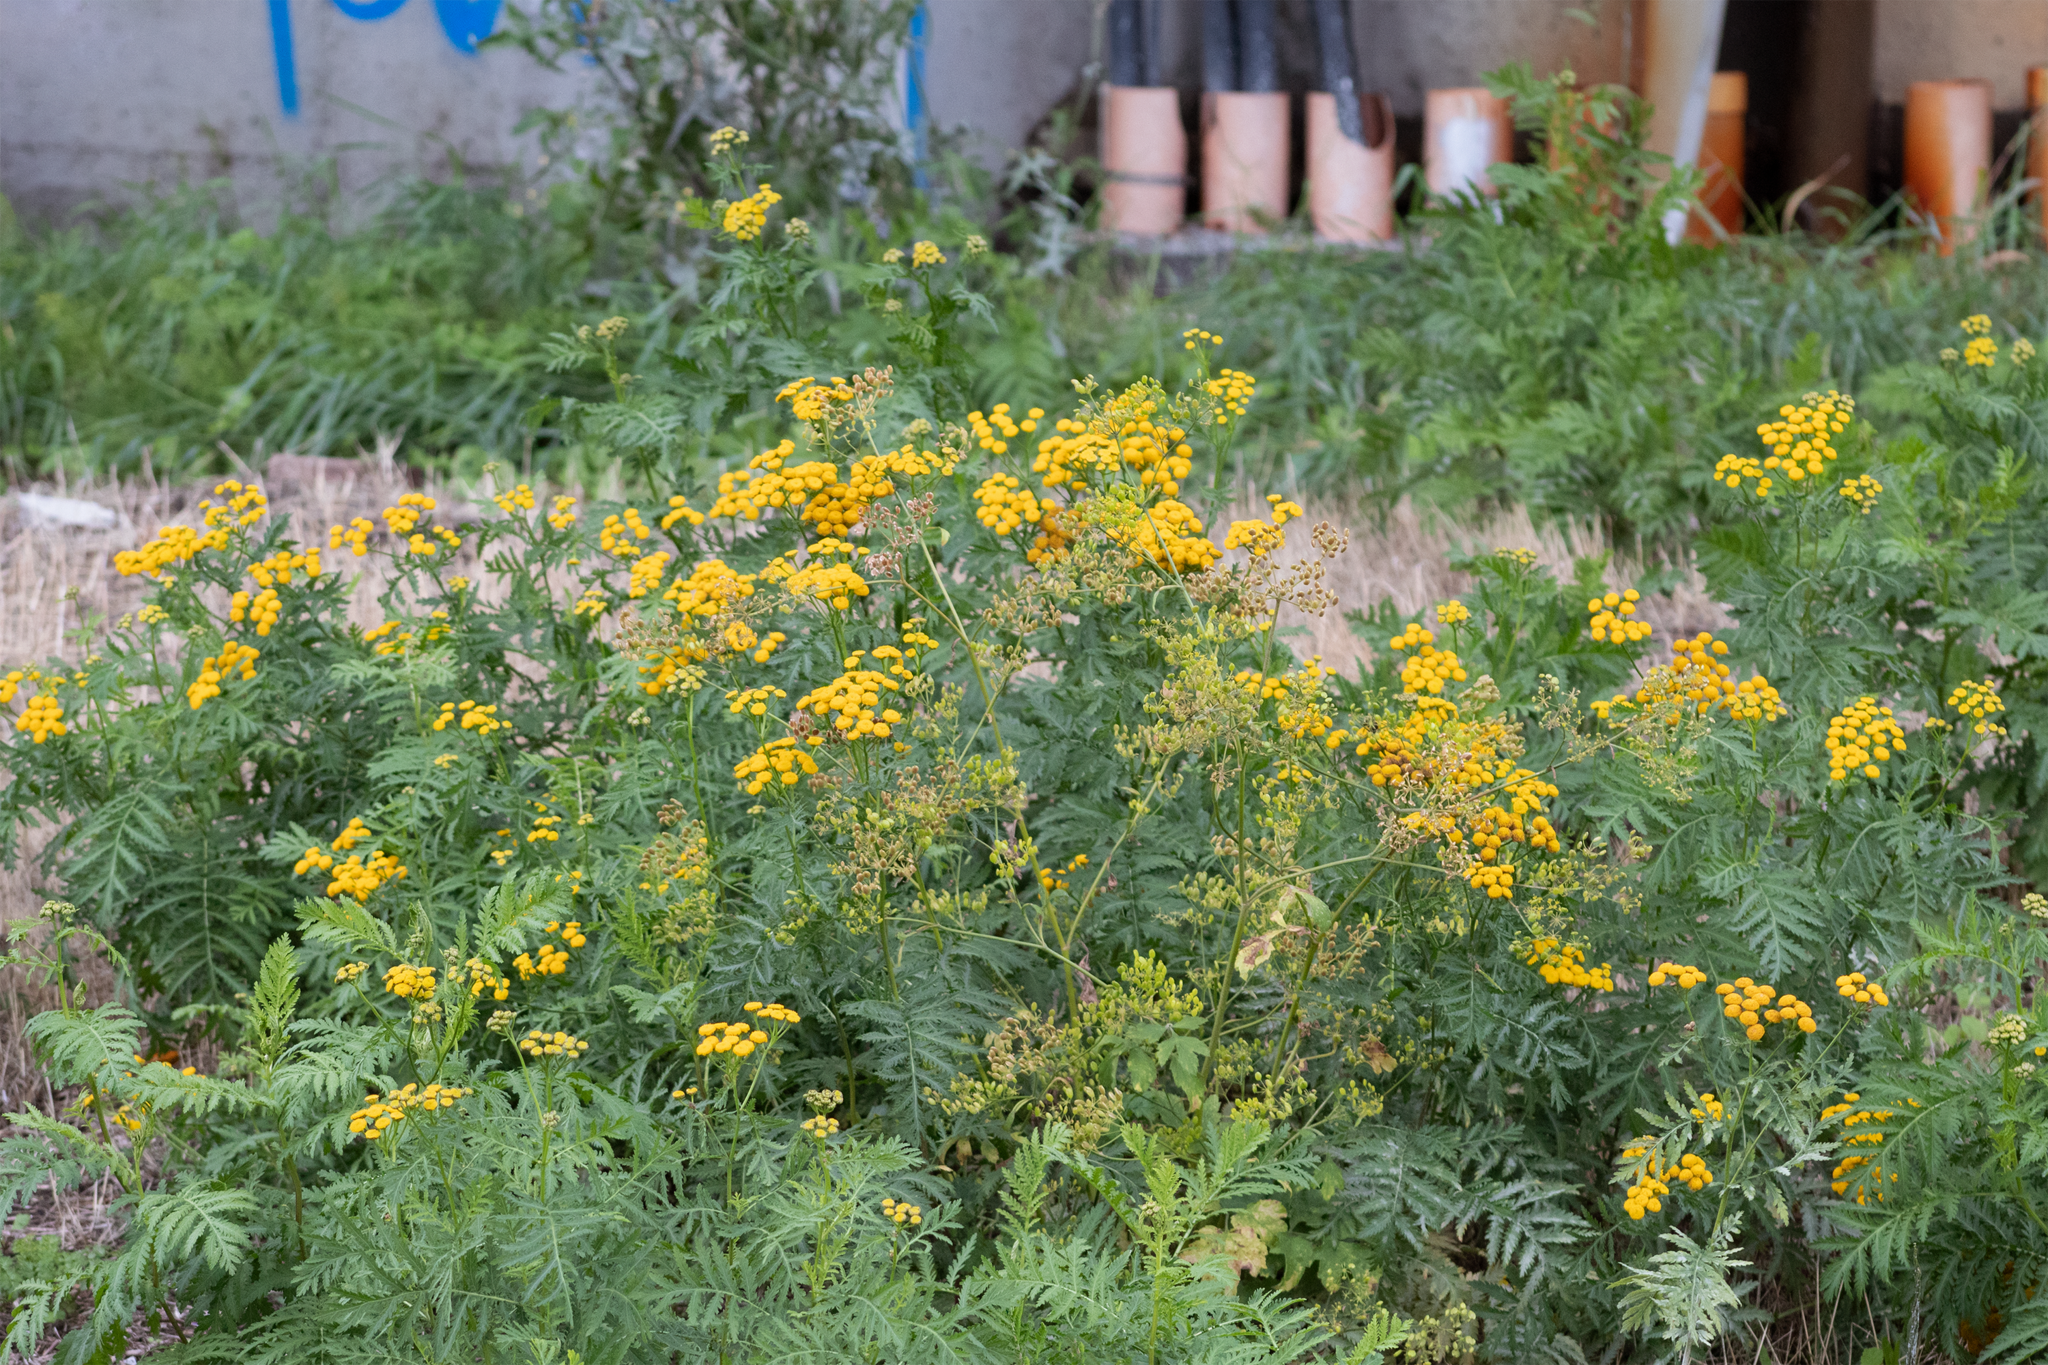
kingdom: Plantae
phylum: Tracheophyta
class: Magnoliopsida
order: Asterales
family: Asteraceae
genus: Tanacetum
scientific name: Tanacetum vulgare
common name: Common tansy
